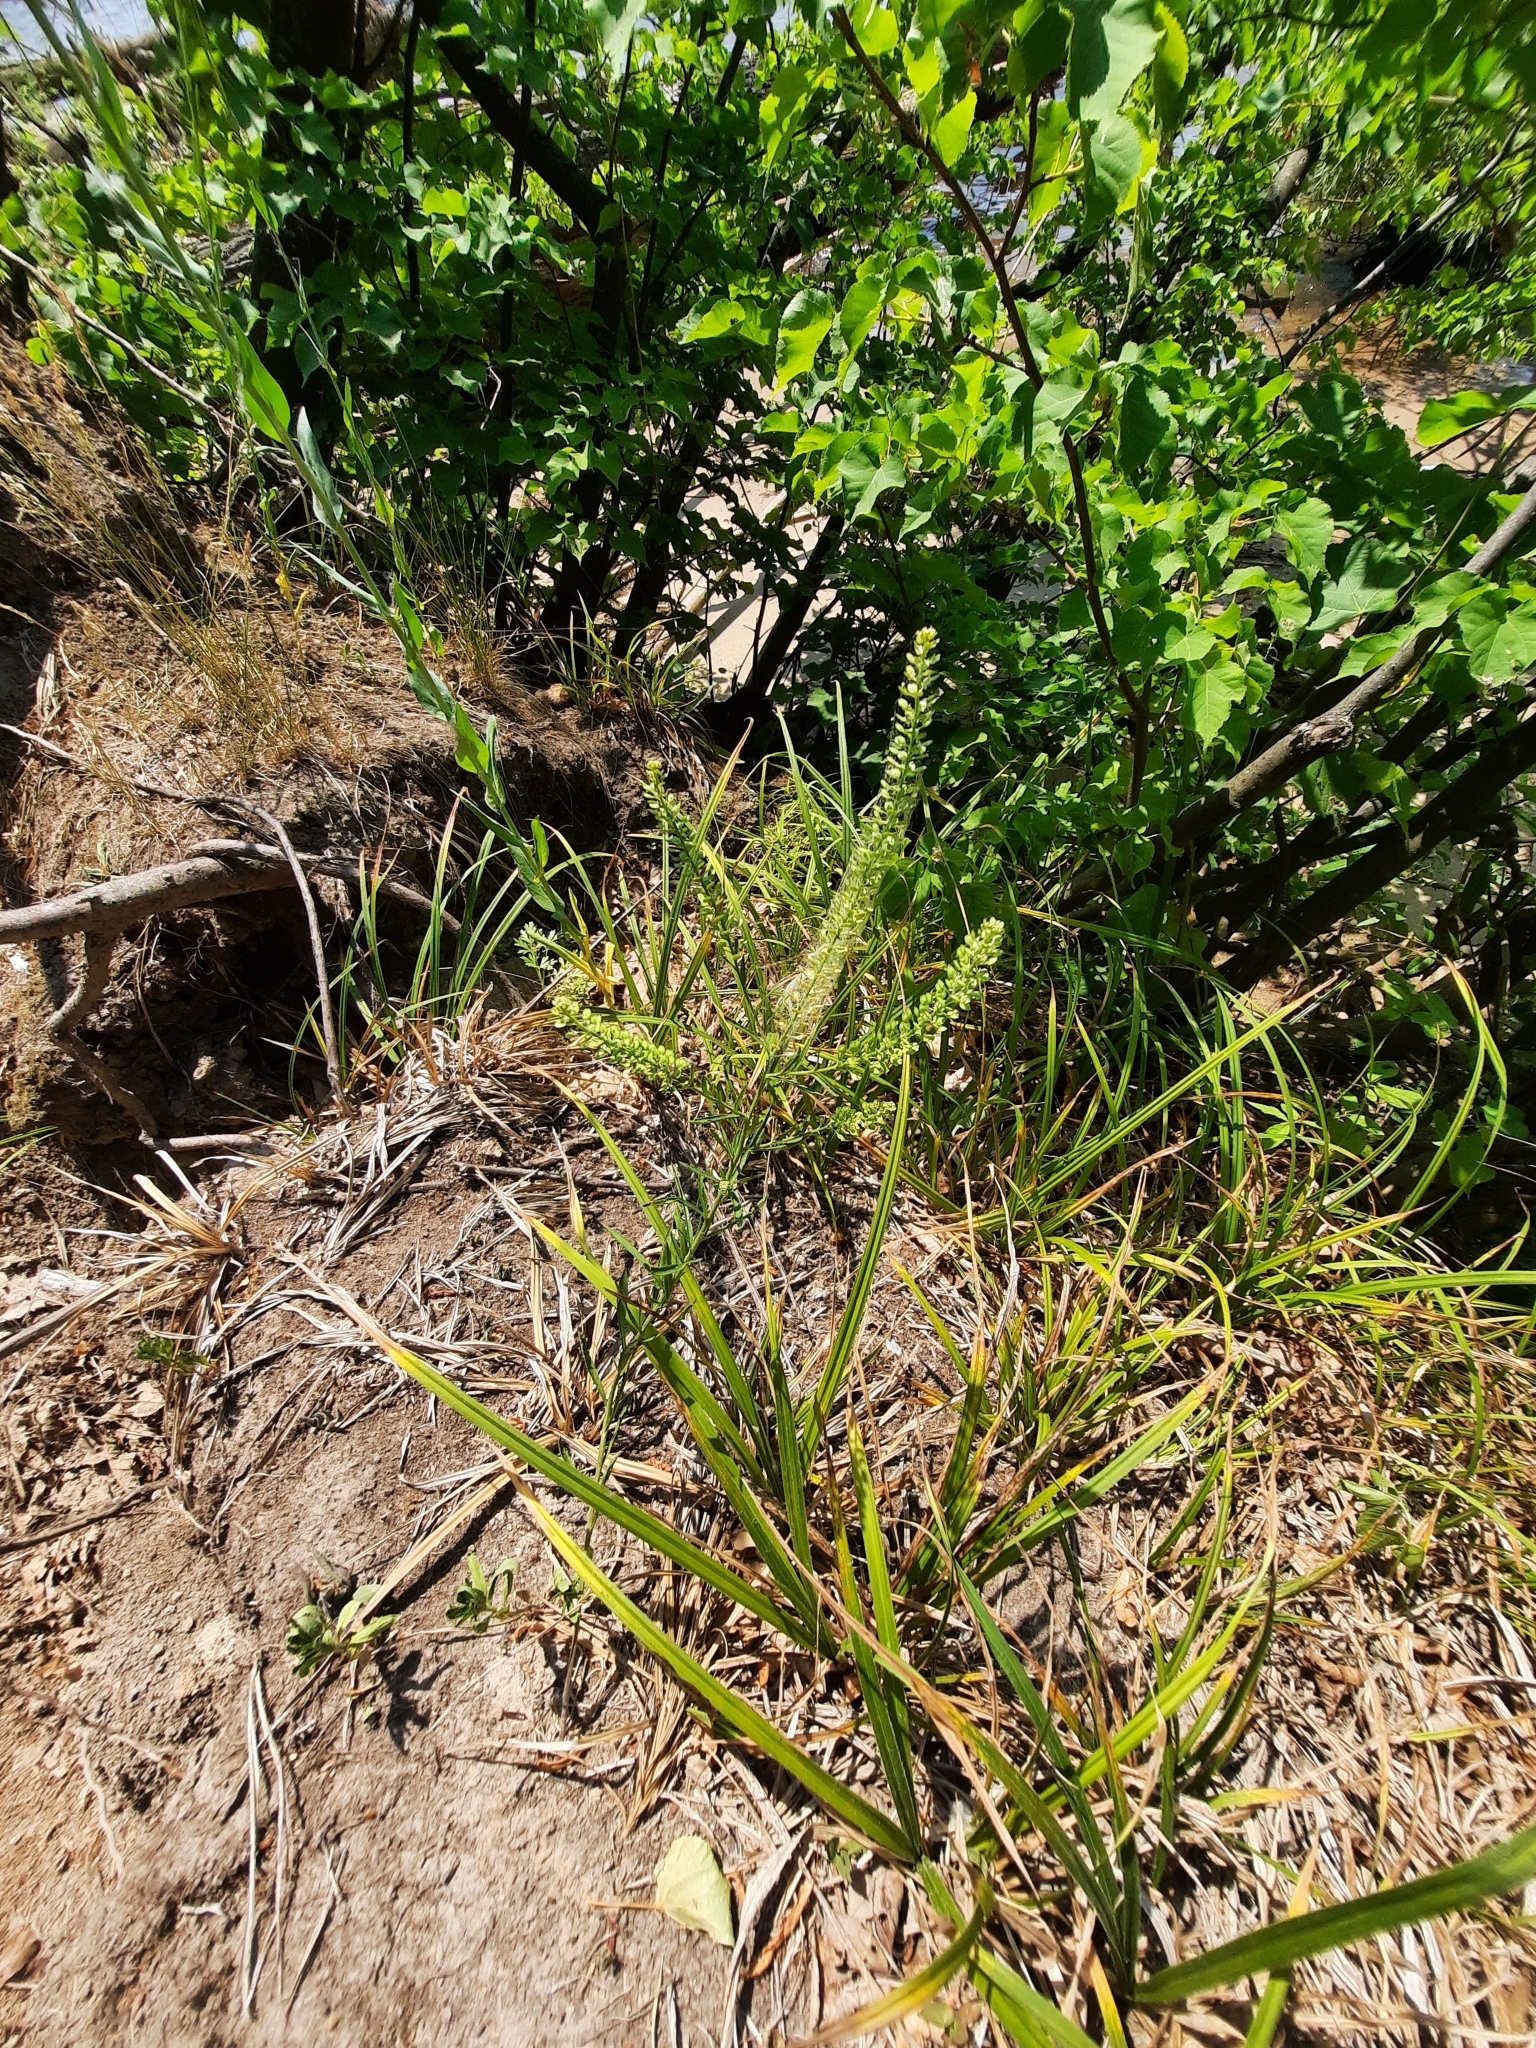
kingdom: Plantae
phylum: Tracheophyta
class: Magnoliopsida
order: Brassicales
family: Brassicaceae
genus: Lepidium
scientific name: Lepidium densiflorum
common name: Miner's pepperwort
